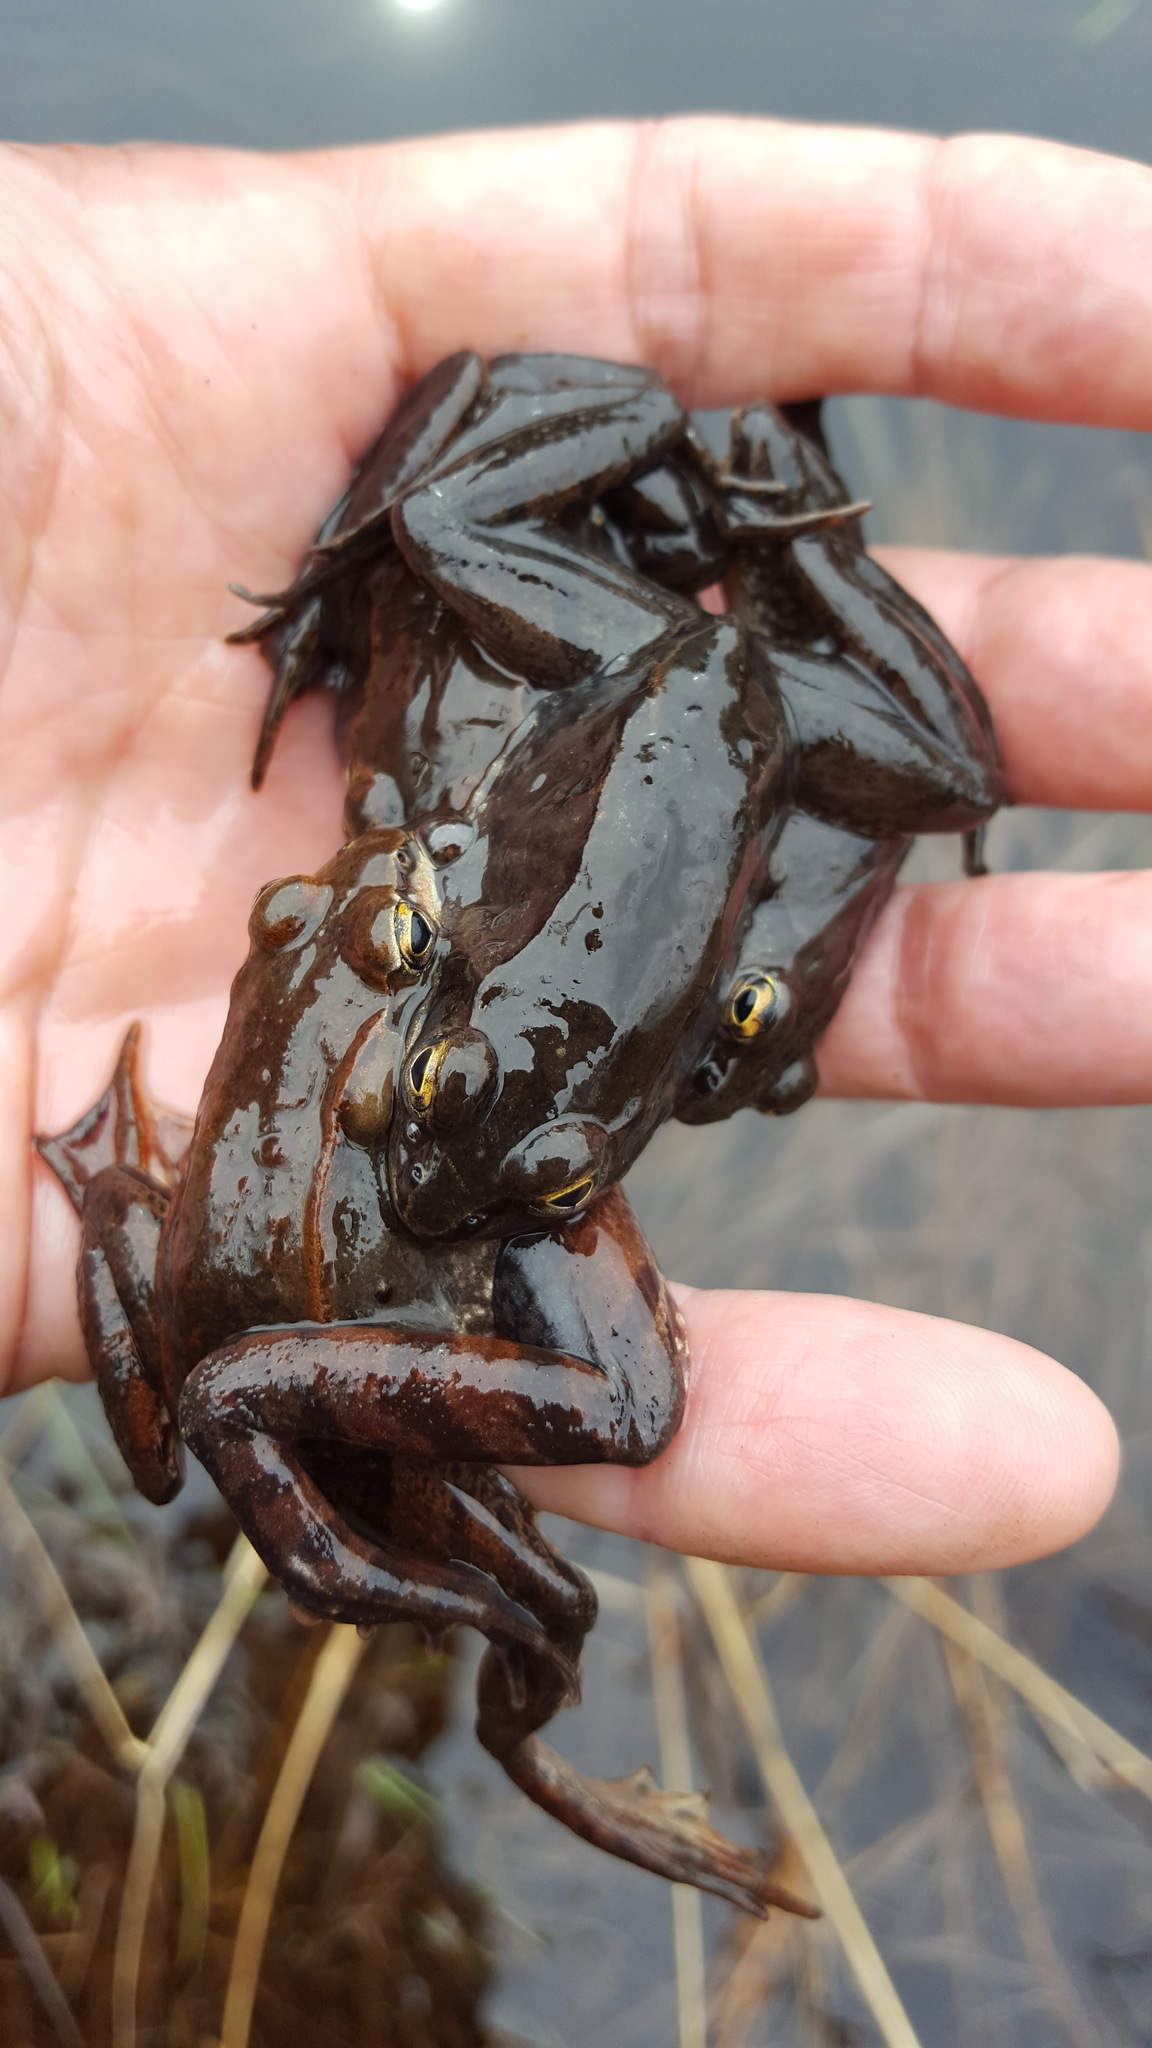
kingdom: Animalia
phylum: Chordata
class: Amphibia
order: Anura
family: Ranidae
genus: Lithobates
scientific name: Lithobates sylvaticus
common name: Wood frog
